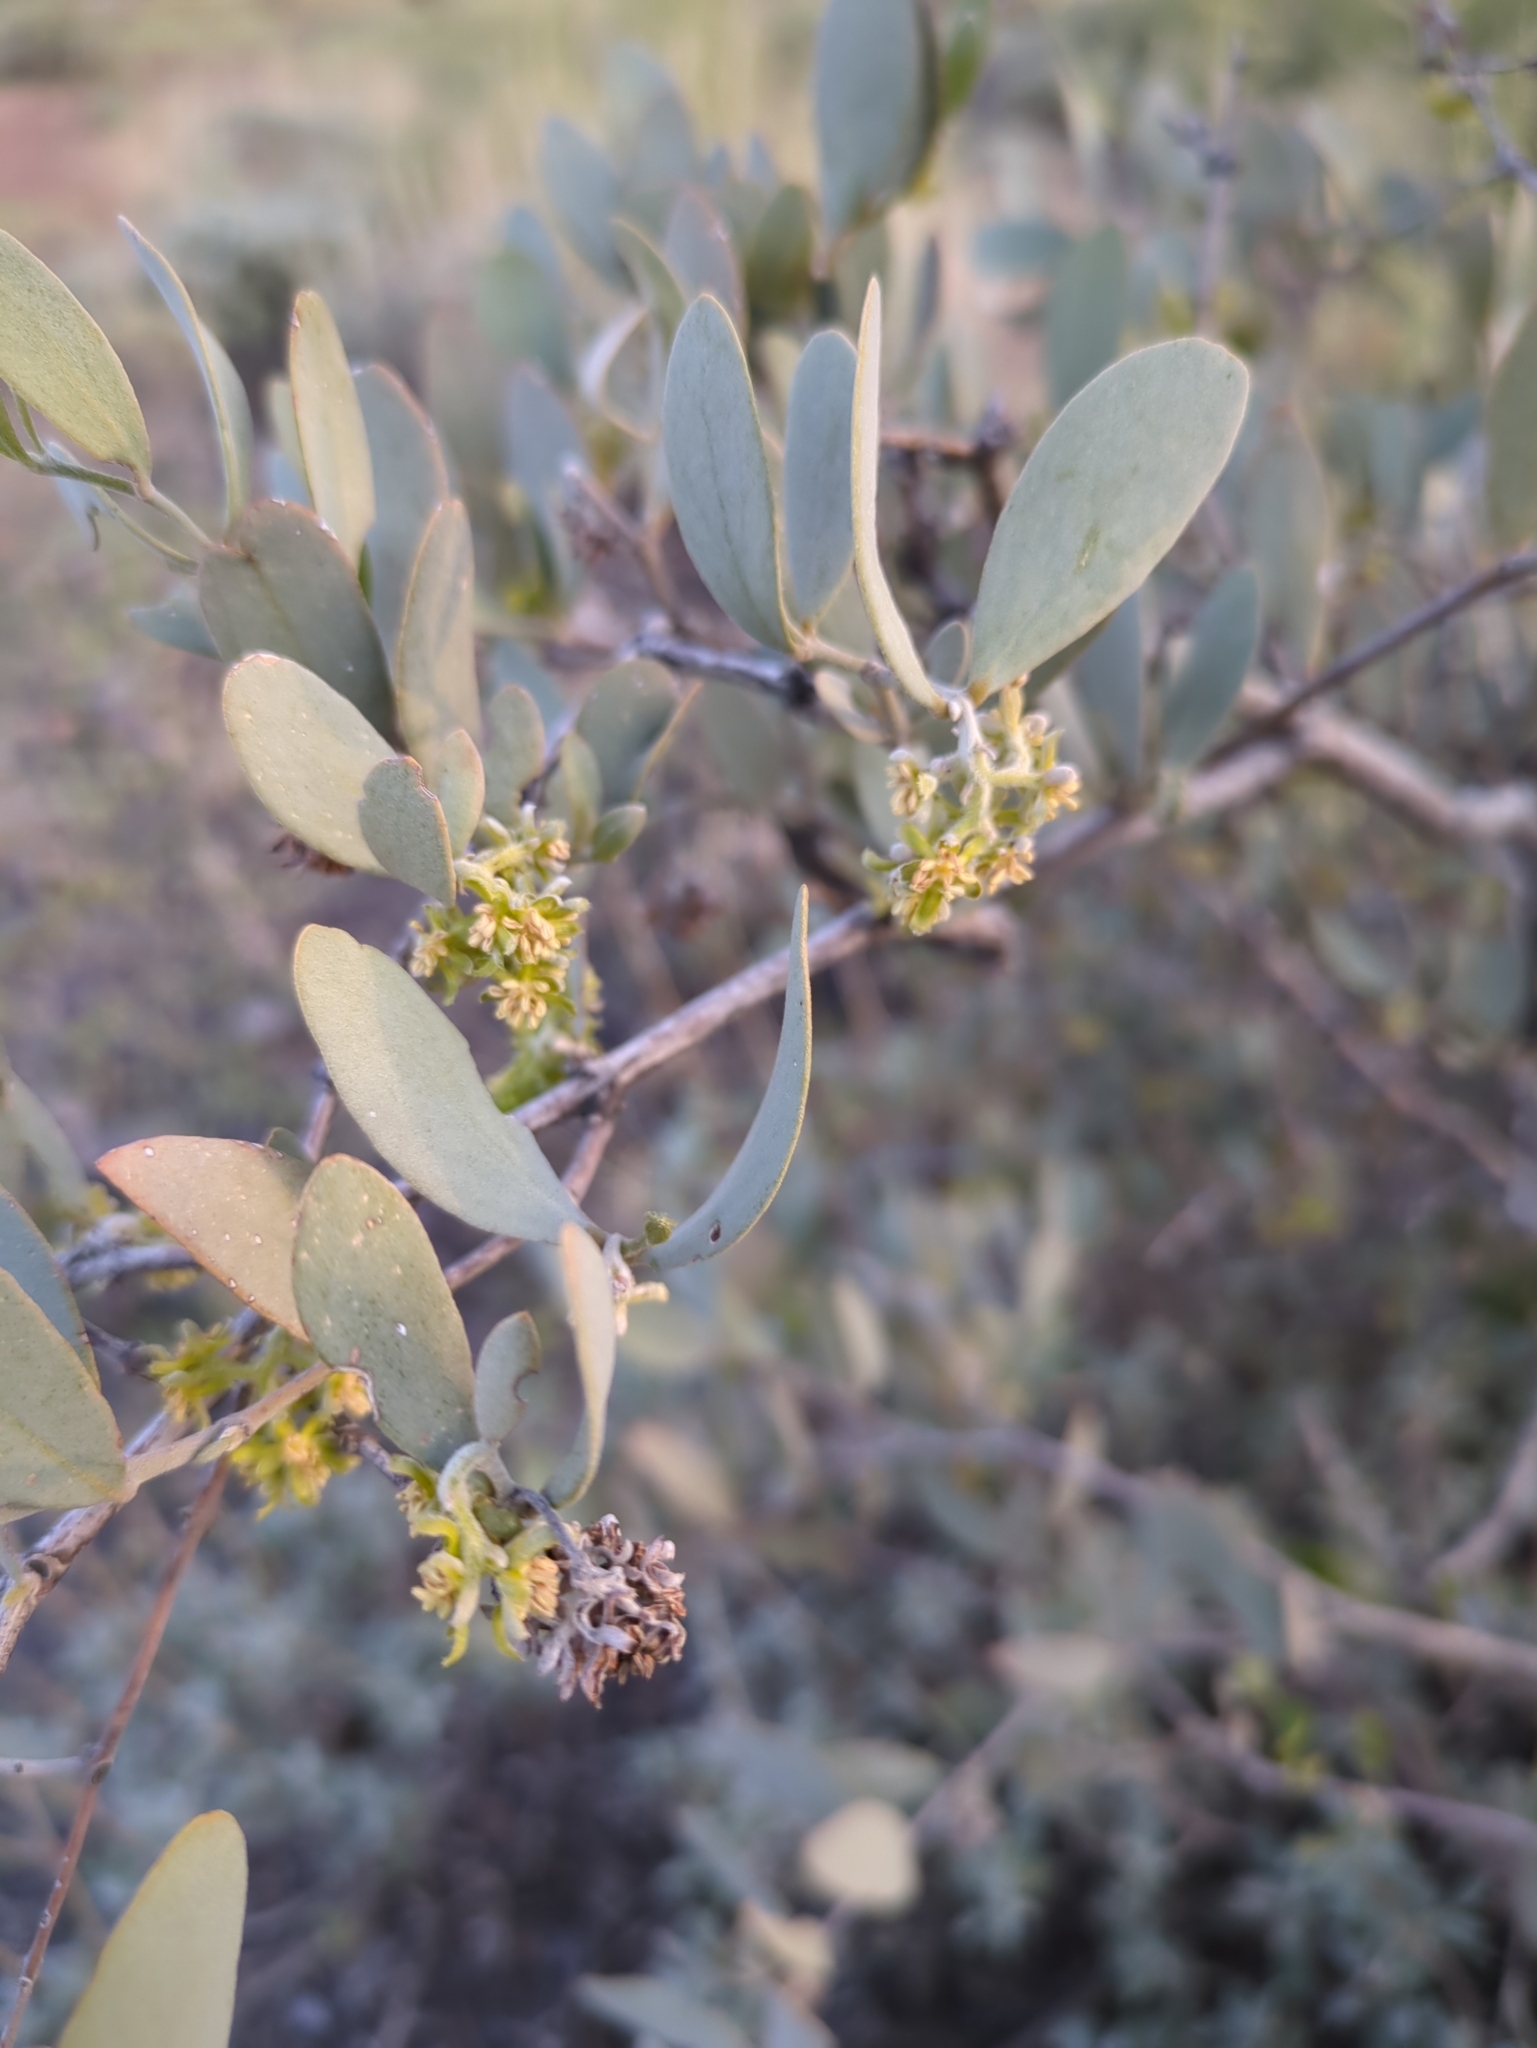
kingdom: Plantae
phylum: Tracheophyta
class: Magnoliopsida
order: Caryophyllales
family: Simmondsiaceae
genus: Simmondsia
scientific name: Simmondsia chinensis
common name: Jojoba
